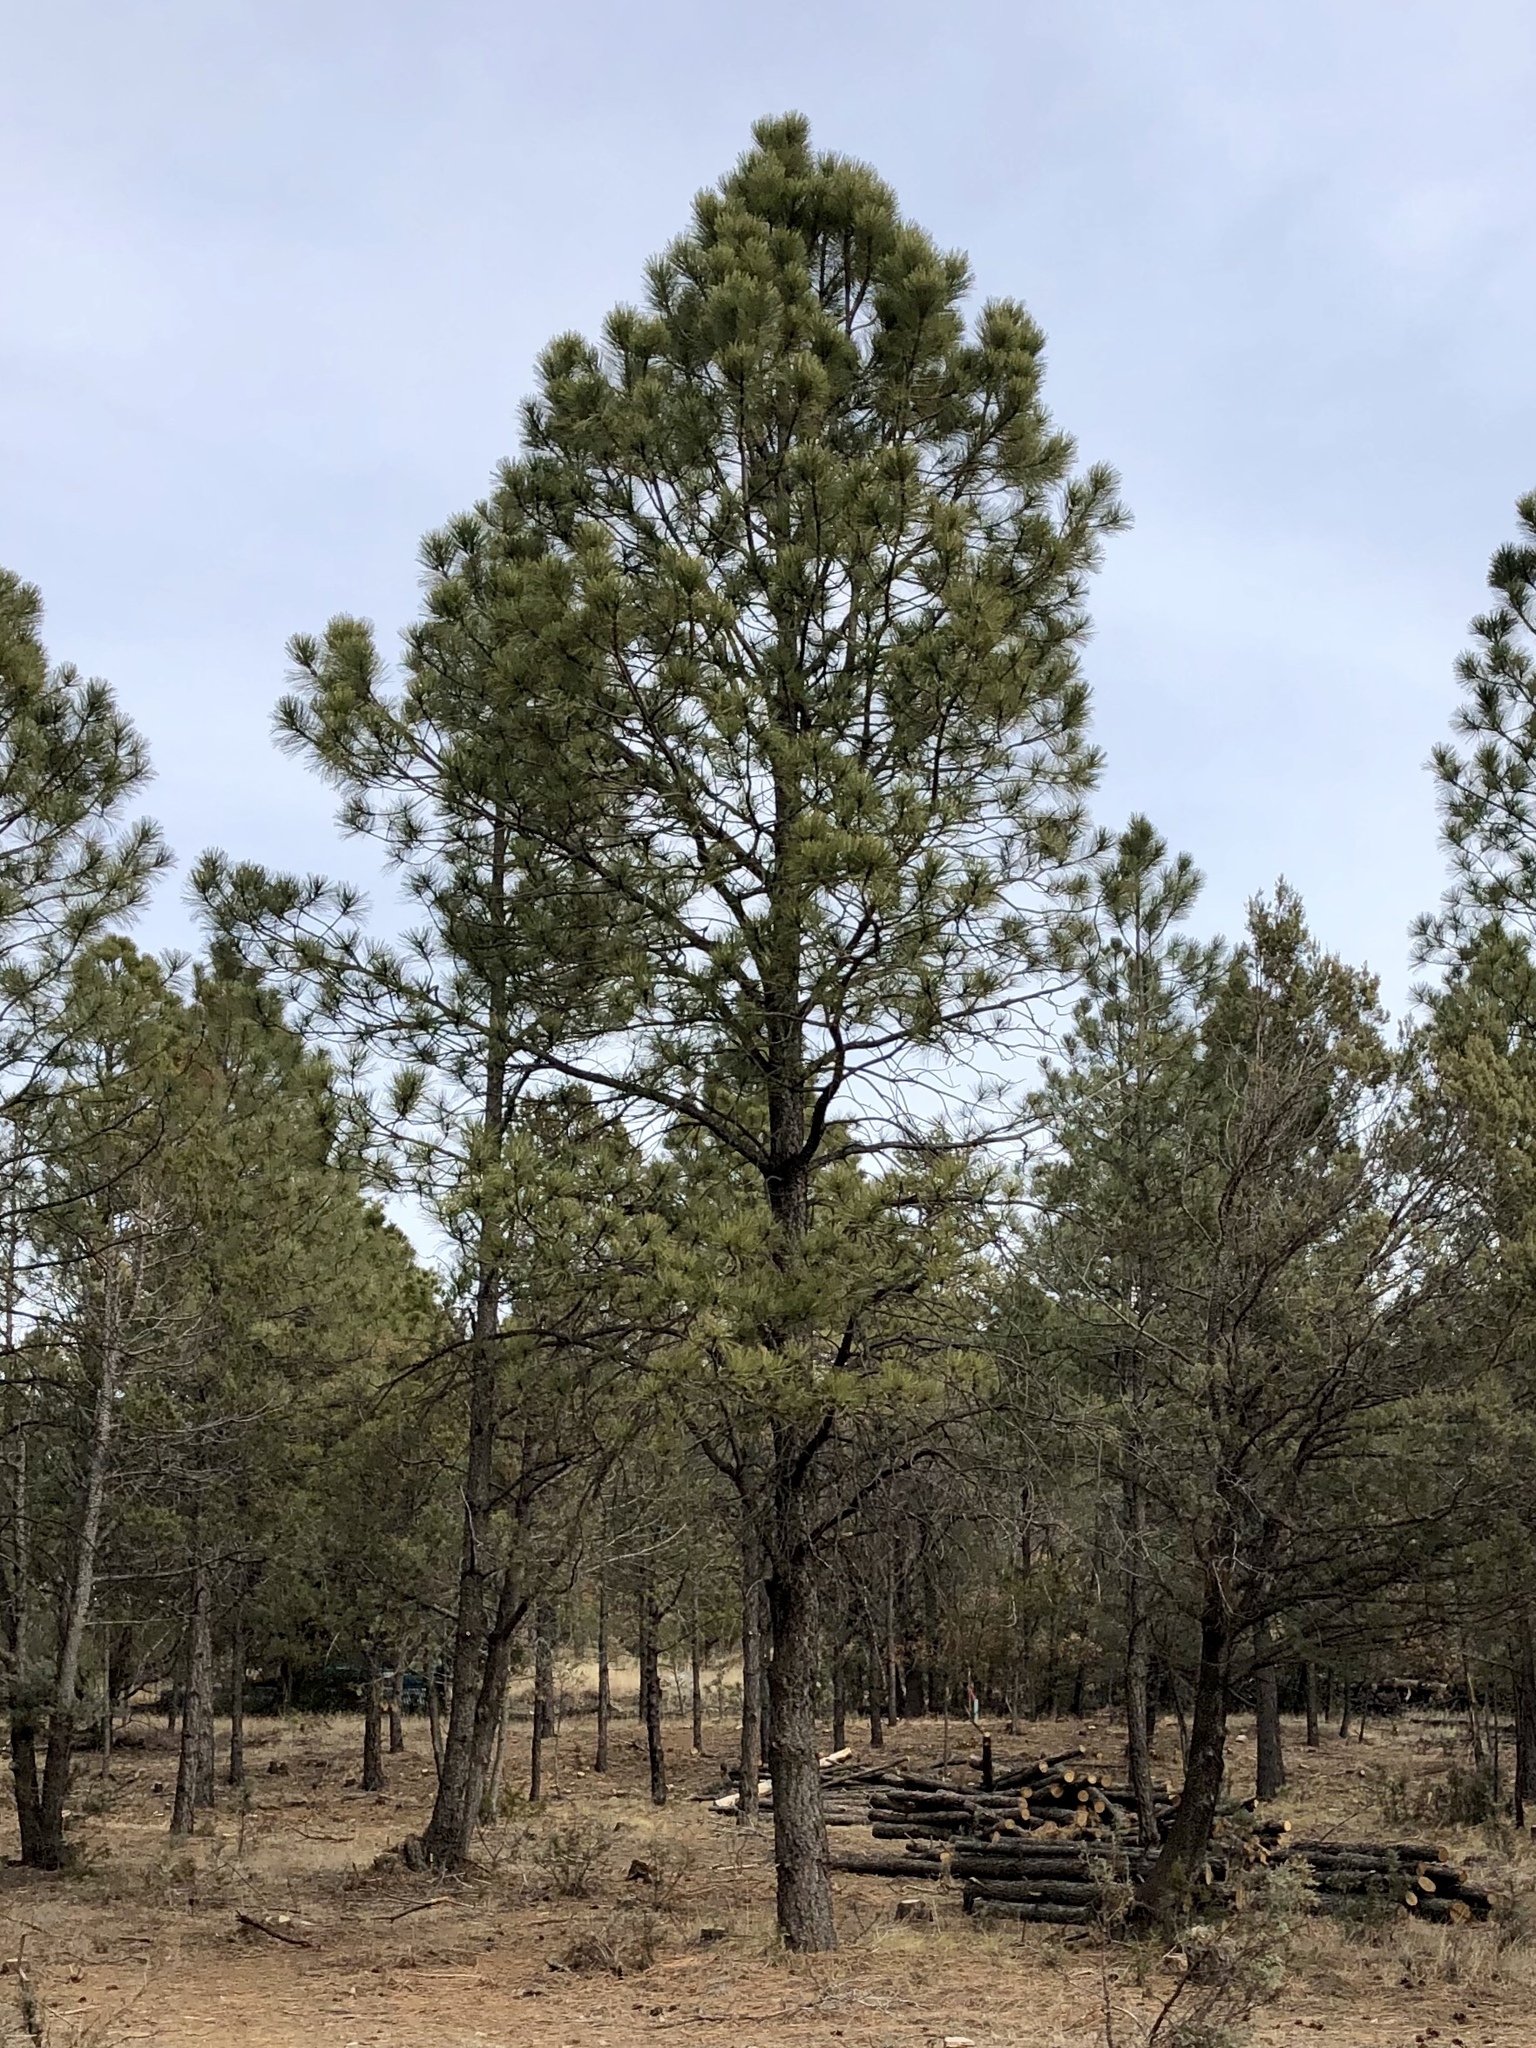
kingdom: Plantae
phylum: Tracheophyta
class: Pinopsida
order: Pinales
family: Pinaceae
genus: Pinus
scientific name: Pinus ponderosa
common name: Western yellow-pine
